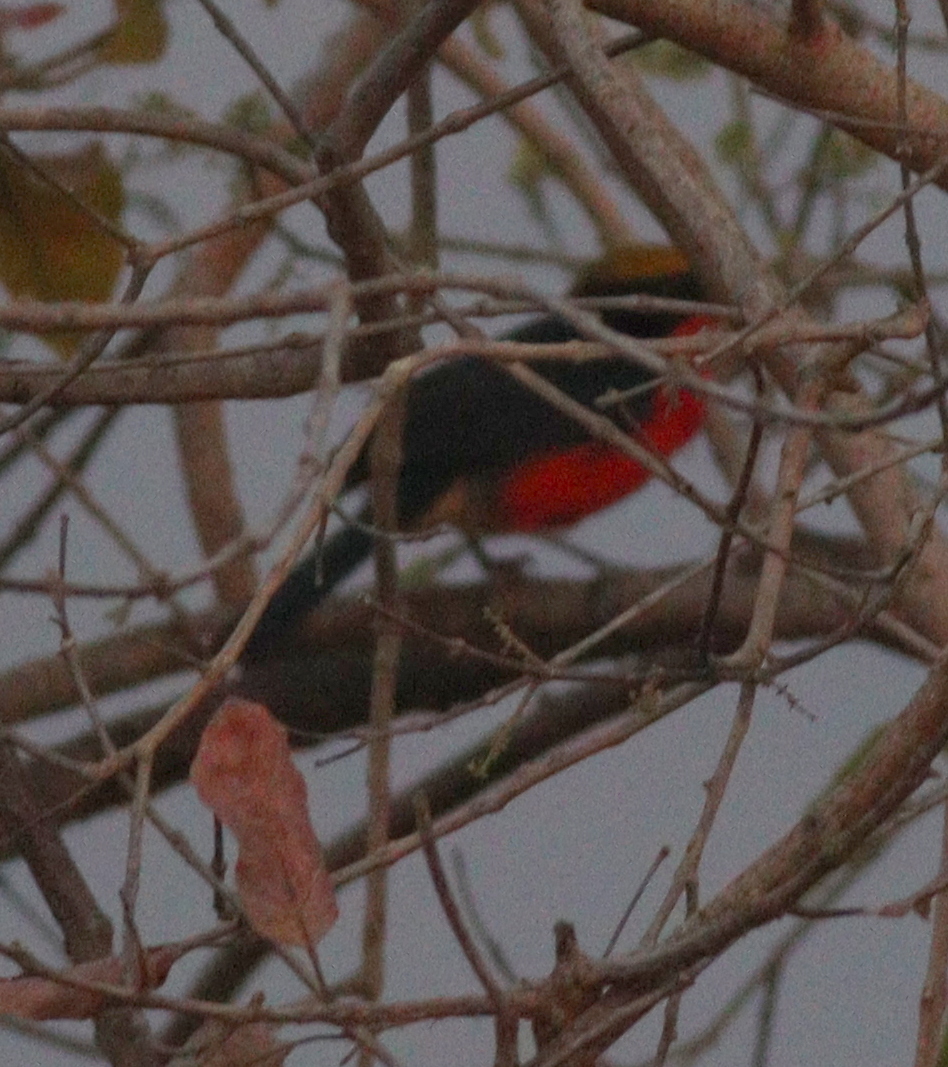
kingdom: Animalia
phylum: Chordata
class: Aves
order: Passeriformes
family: Malaconotidae
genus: Laniarius
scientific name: Laniarius barbarus
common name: Yellow-crowned gonolek
